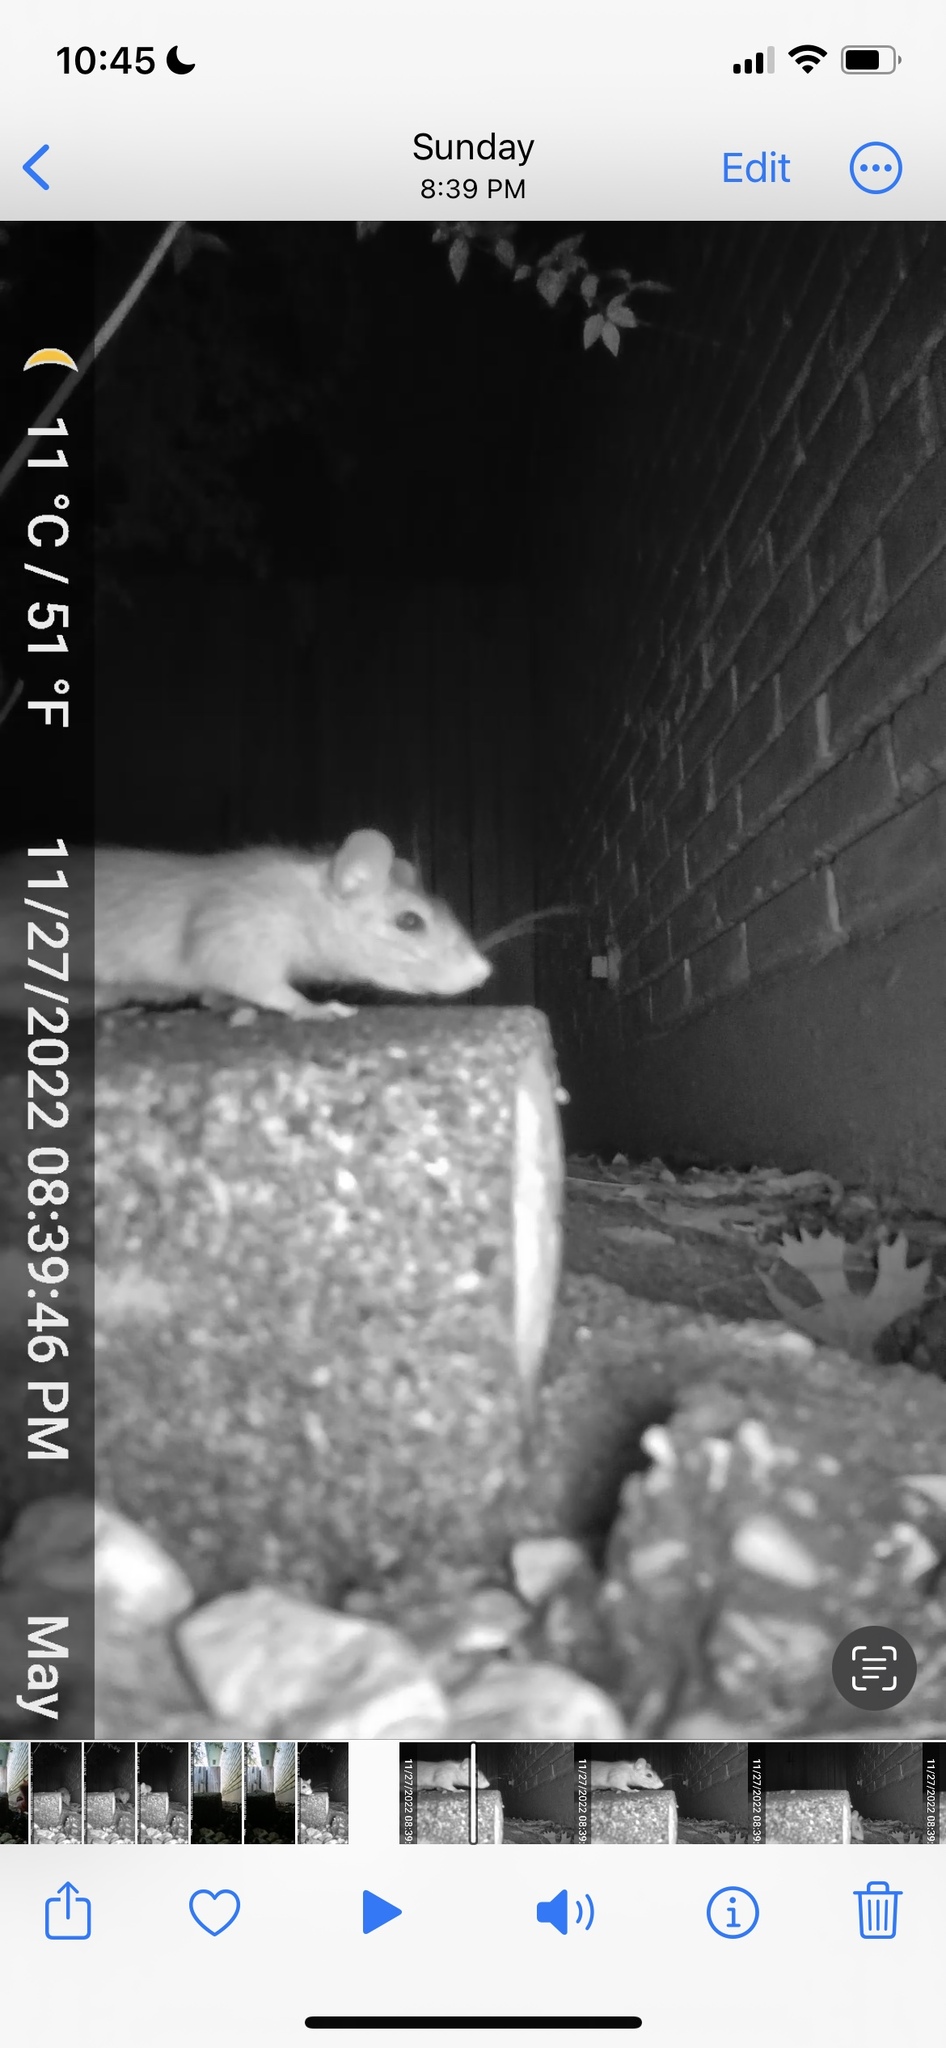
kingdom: Animalia
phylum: Chordata
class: Mammalia
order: Rodentia
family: Muridae
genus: Rattus
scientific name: Rattus rattus
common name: Black rat
